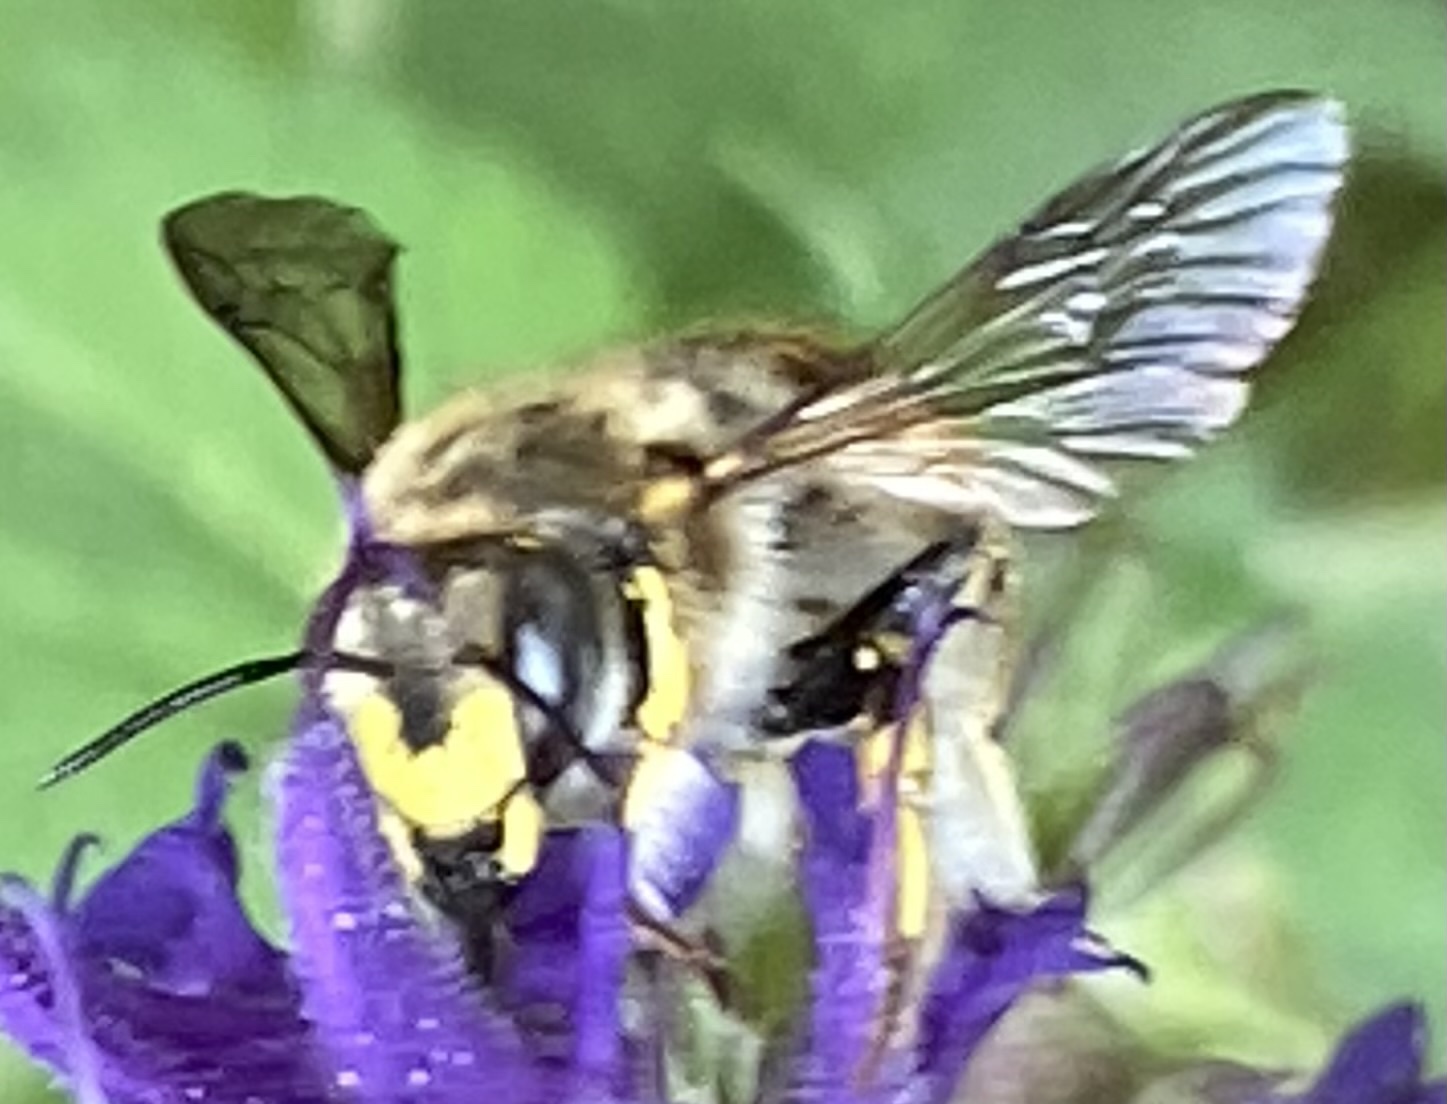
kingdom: Animalia
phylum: Arthropoda
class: Insecta
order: Hymenoptera
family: Megachilidae
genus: Anthidium
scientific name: Anthidium manicatum
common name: Wool carder bee
